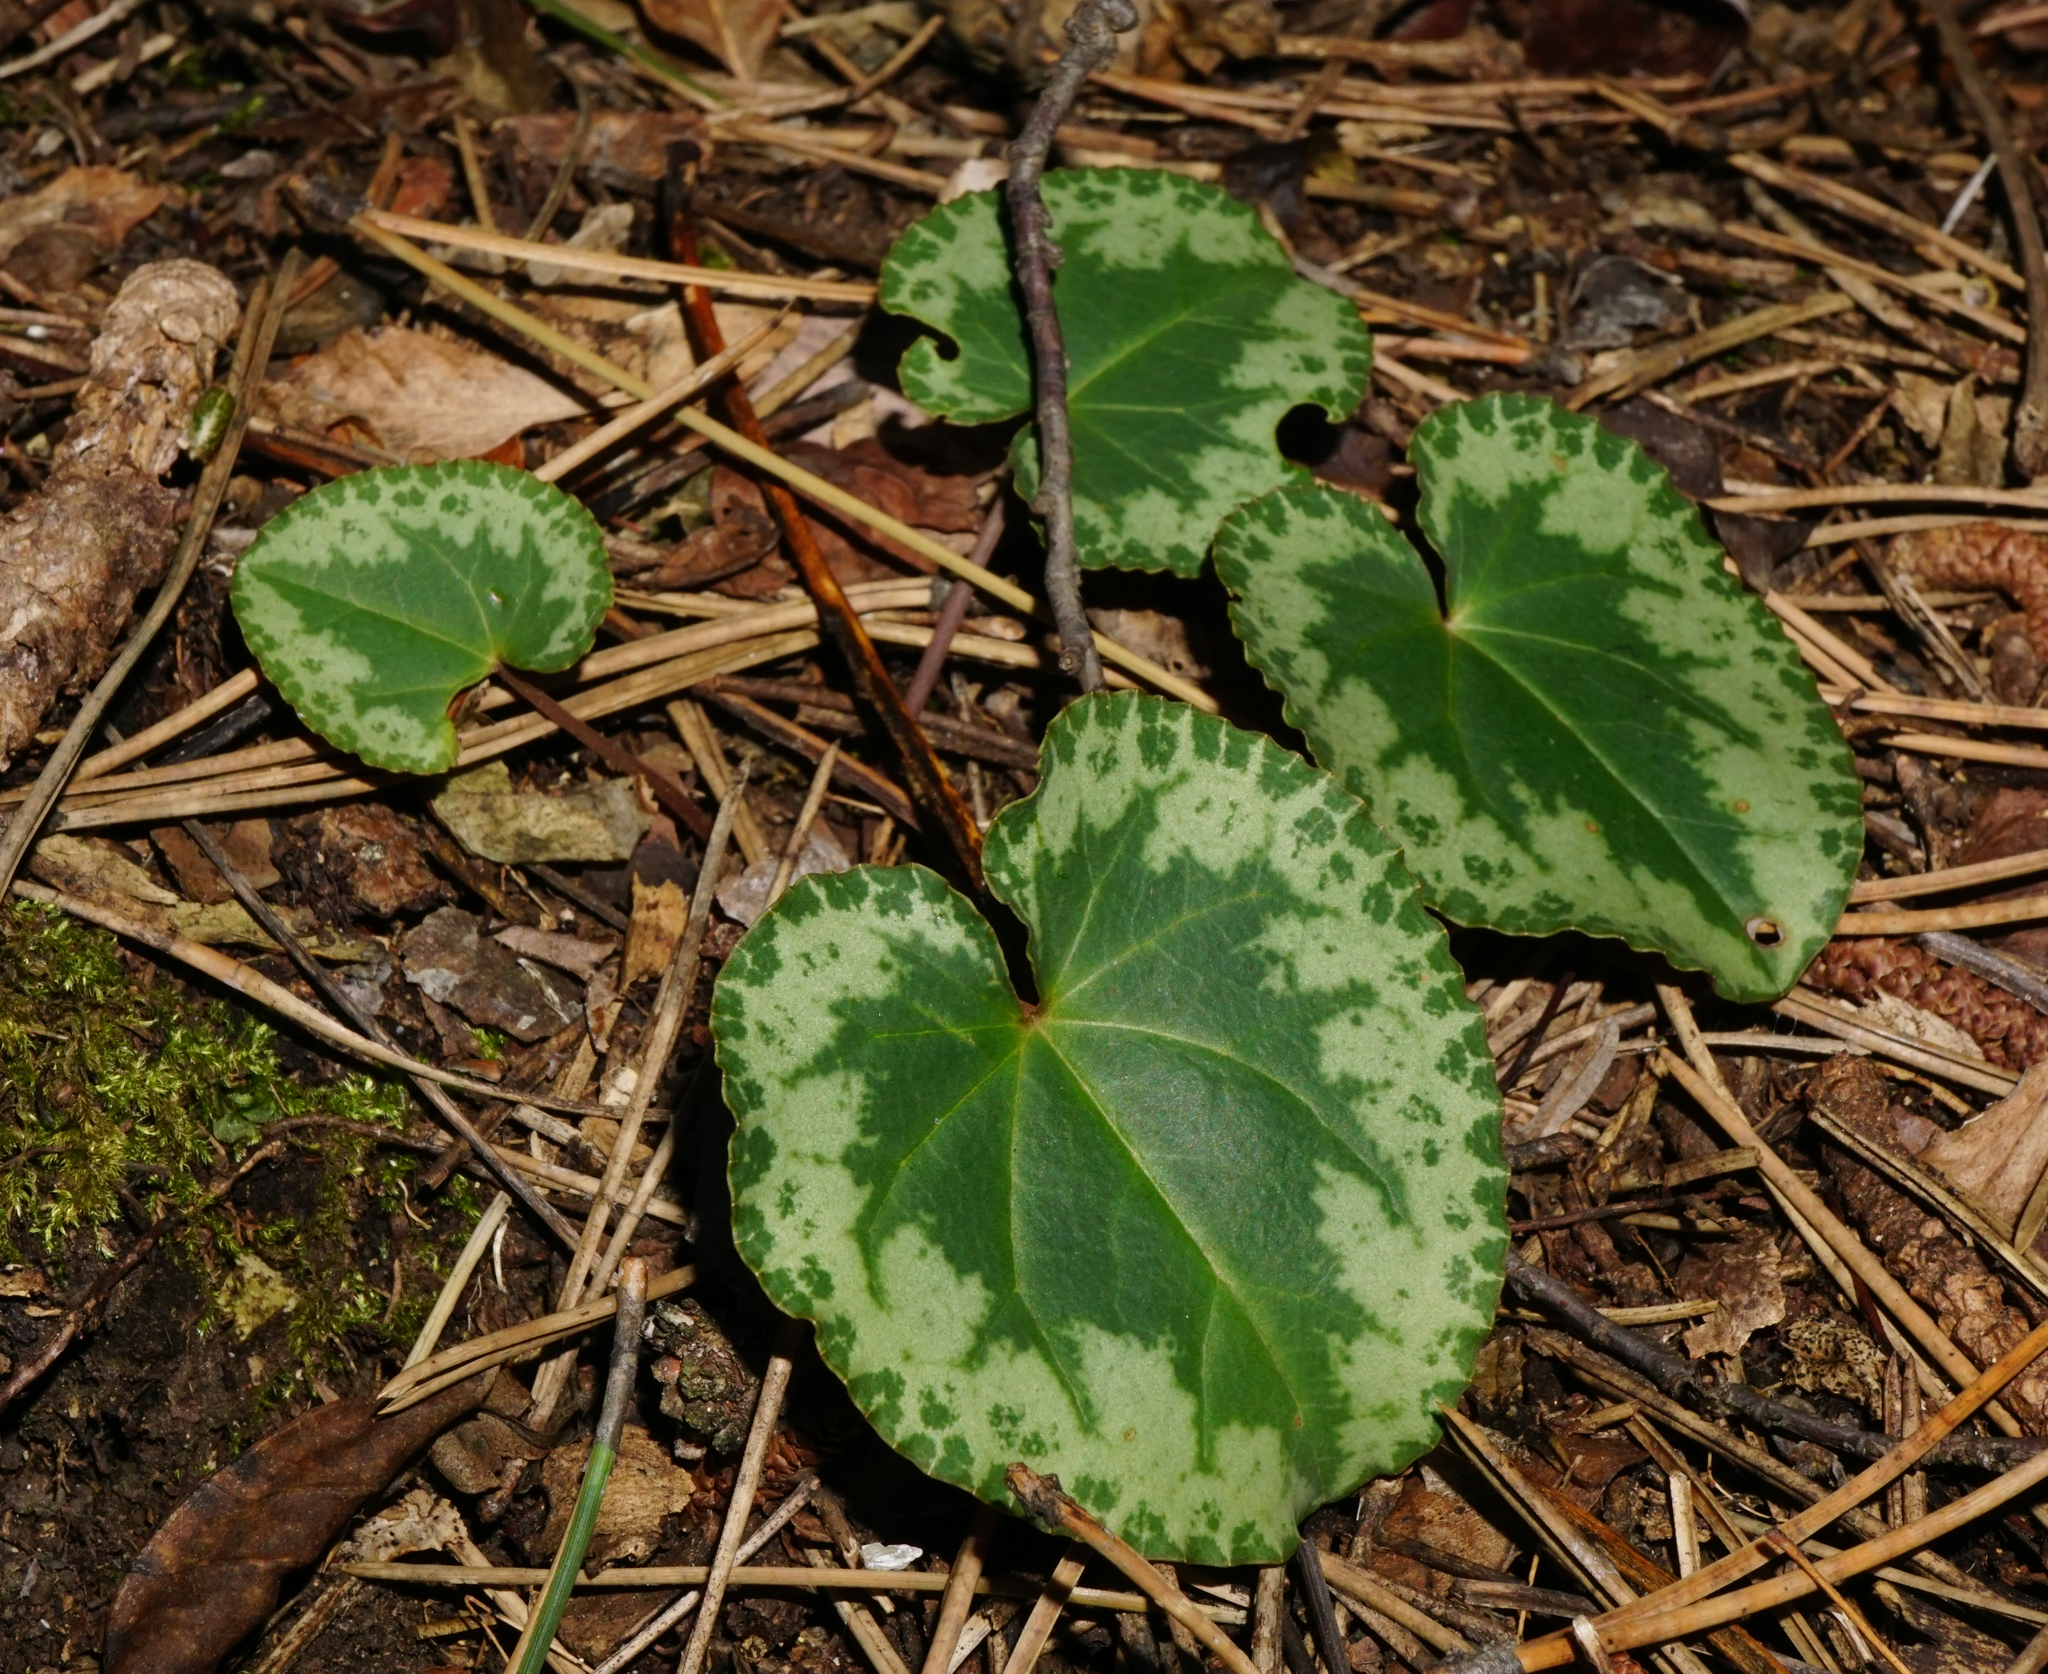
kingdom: Plantae
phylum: Tracheophyta
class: Magnoliopsida
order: Ericales
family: Primulaceae
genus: Cyclamen
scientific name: Cyclamen purpurascens
